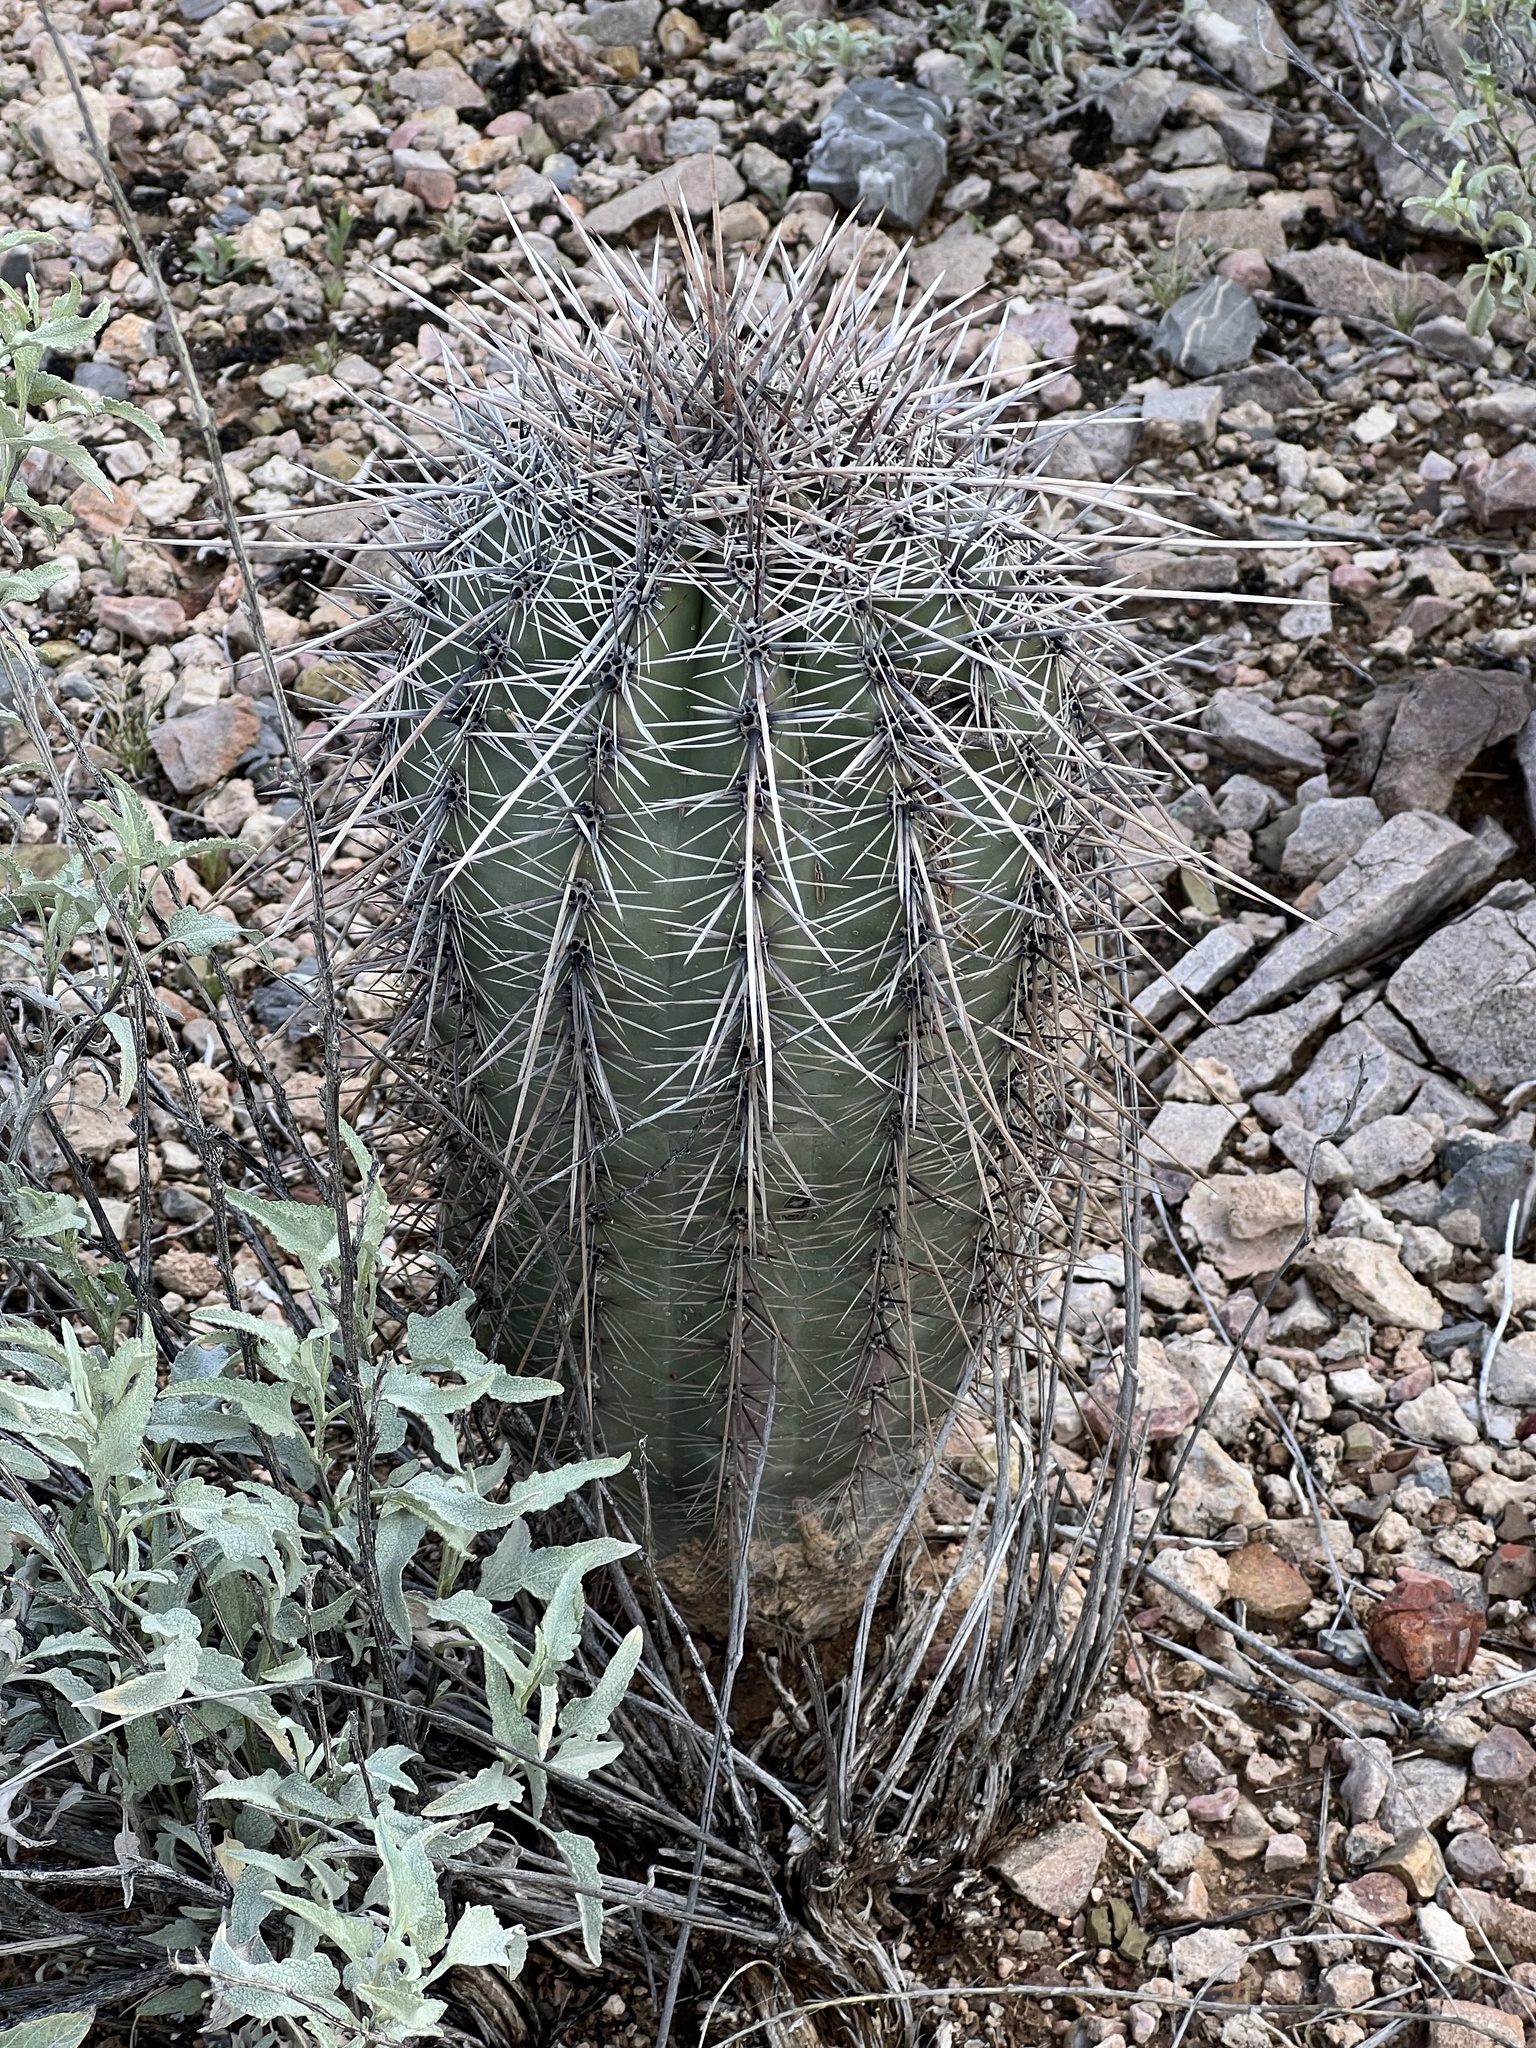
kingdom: Plantae
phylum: Tracheophyta
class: Magnoliopsida
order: Caryophyllales
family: Cactaceae
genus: Carnegiea
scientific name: Carnegiea gigantea
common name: Saguaro
